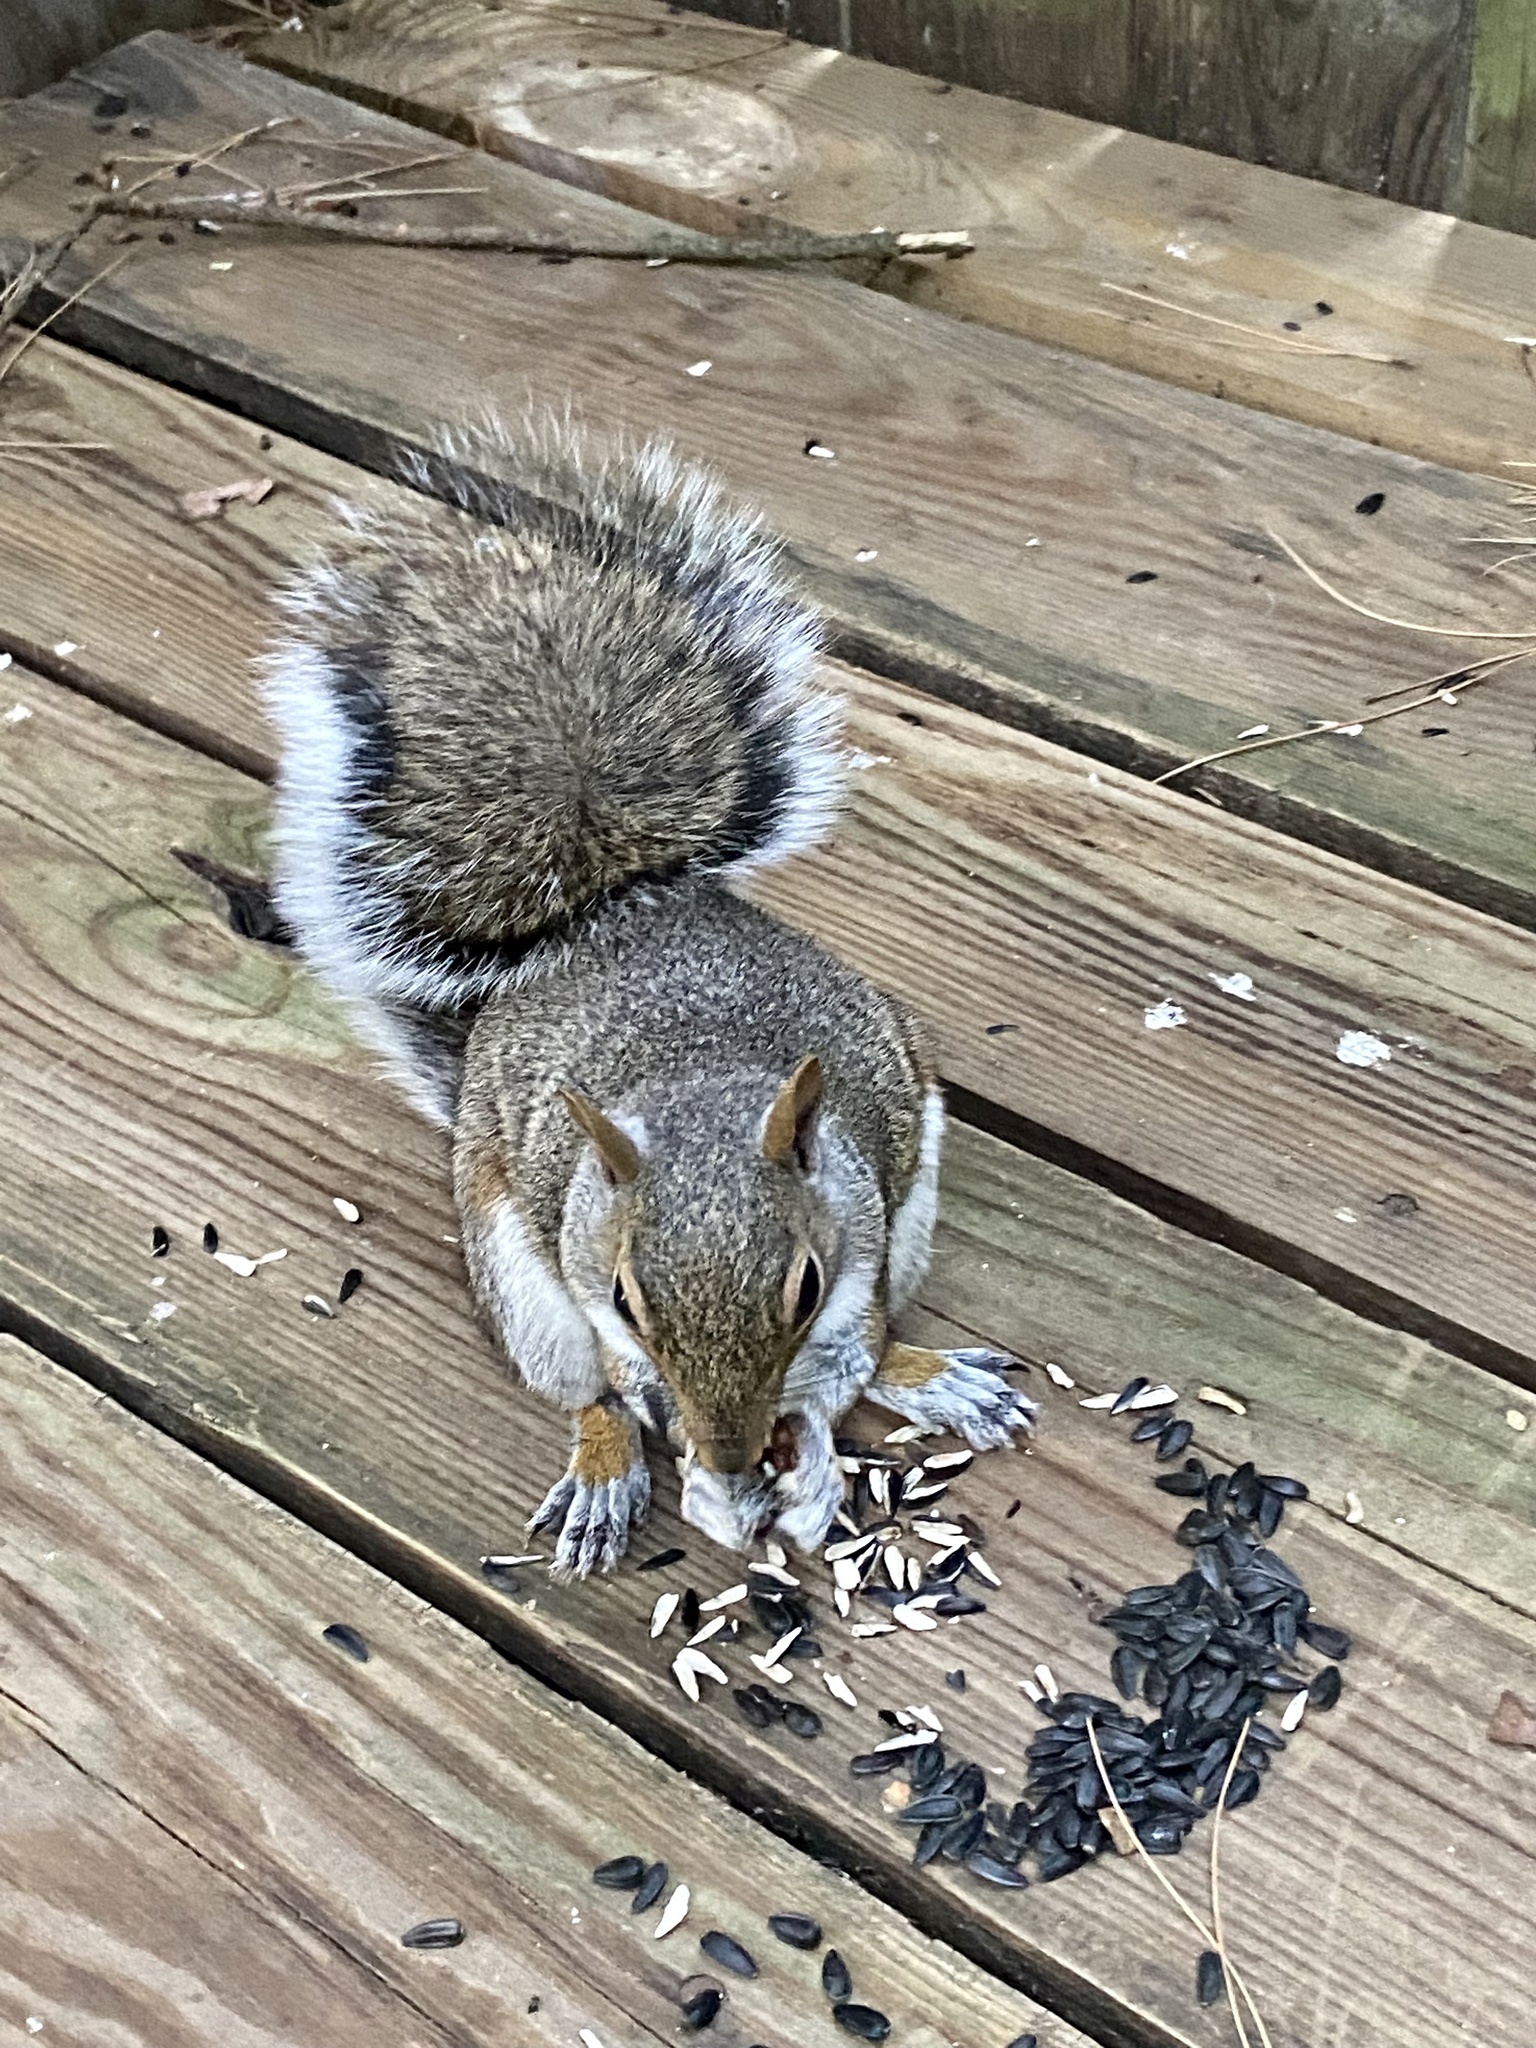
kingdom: Animalia
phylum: Chordata
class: Mammalia
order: Rodentia
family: Sciuridae
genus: Sciurus
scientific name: Sciurus carolinensis
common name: Eastern gray squirrel
